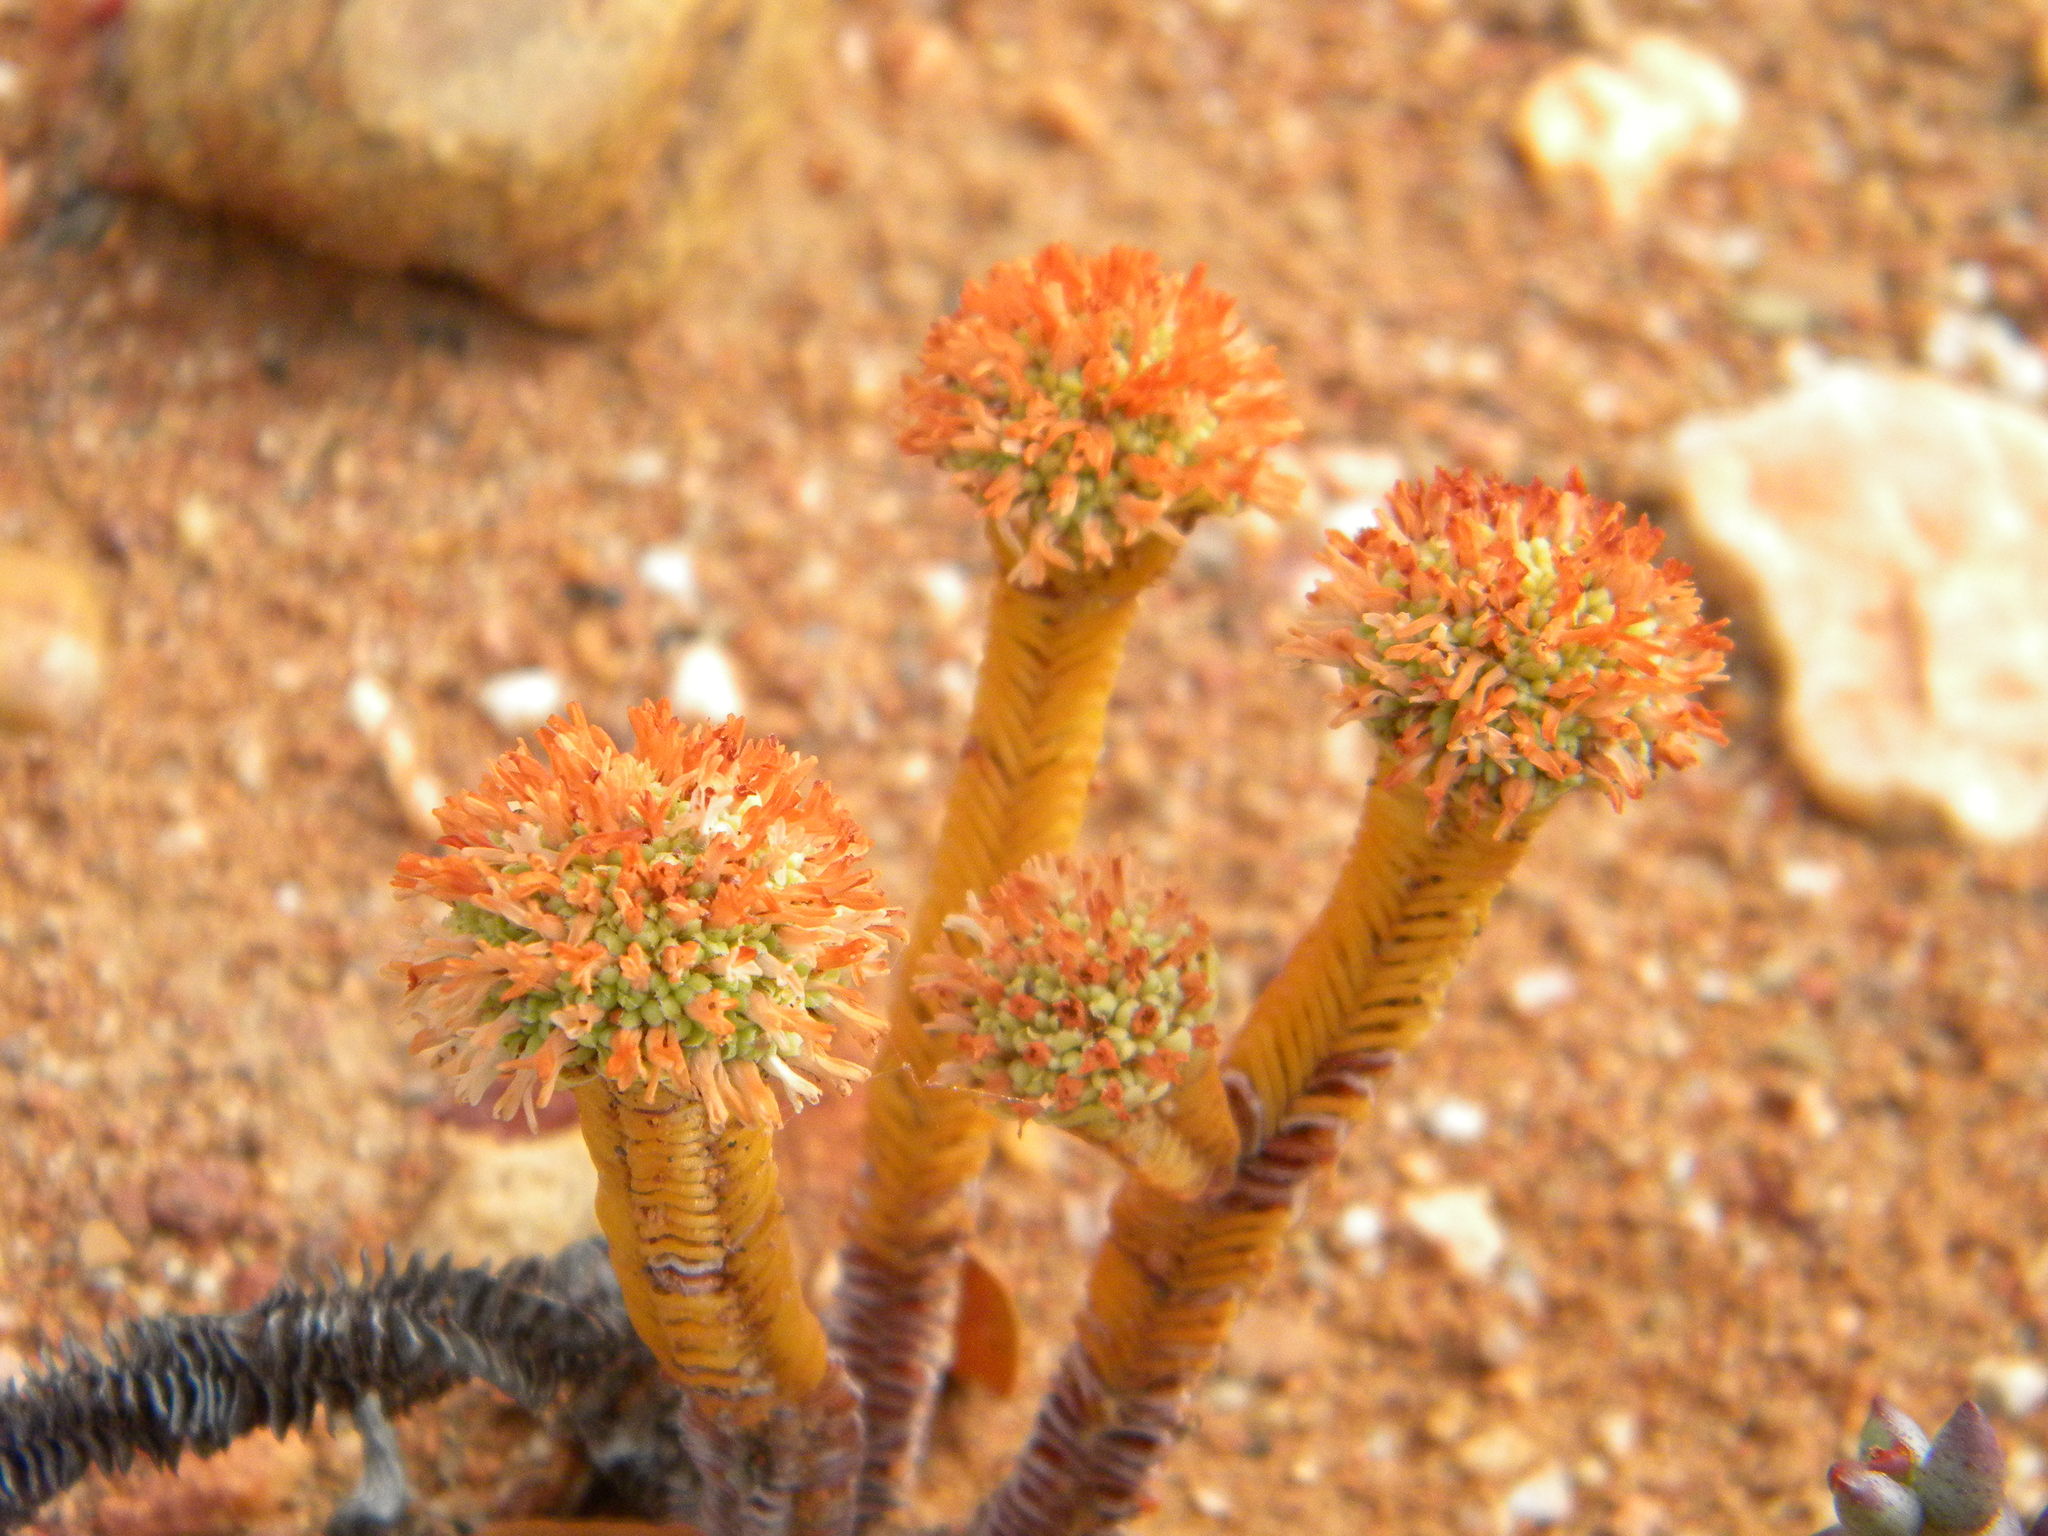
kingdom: Plantae
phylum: Tracheophyta
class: Magnoliopsida
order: Saxifragales
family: Crassulaceae
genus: Crassula
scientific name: Crassula pyramidalis
